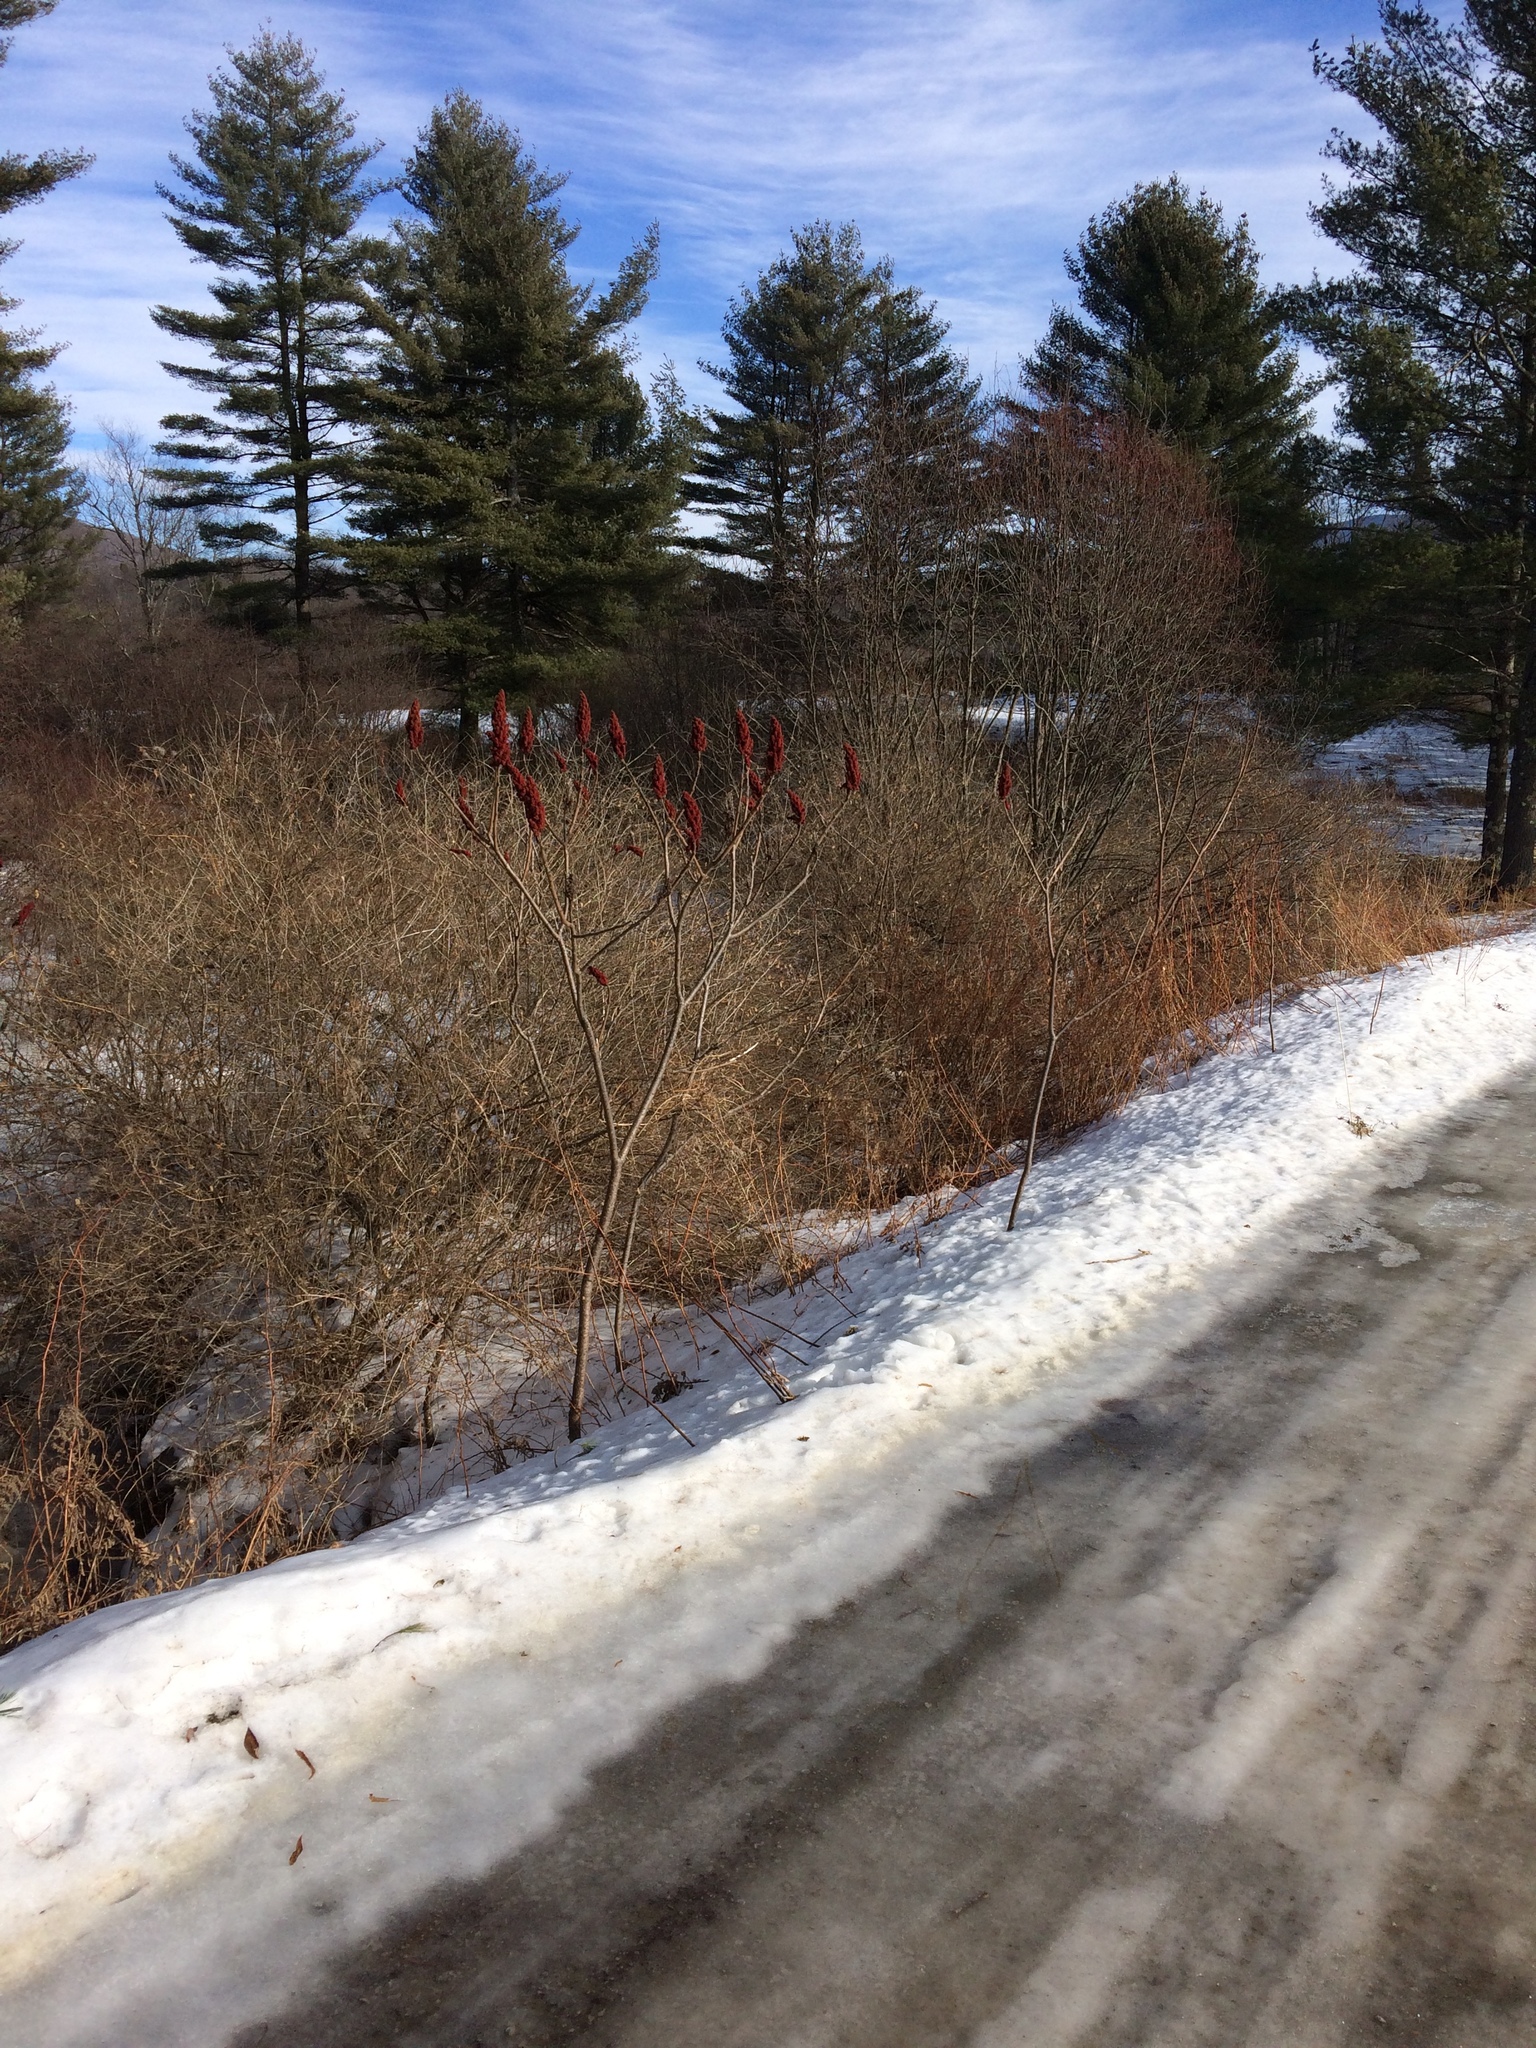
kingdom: Plantae
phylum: Tracheophyta
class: Magnoliopsida
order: Sapindales
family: Anacardiaceae
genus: Rhus
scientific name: Rhus typhina
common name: Staghorn sumac
